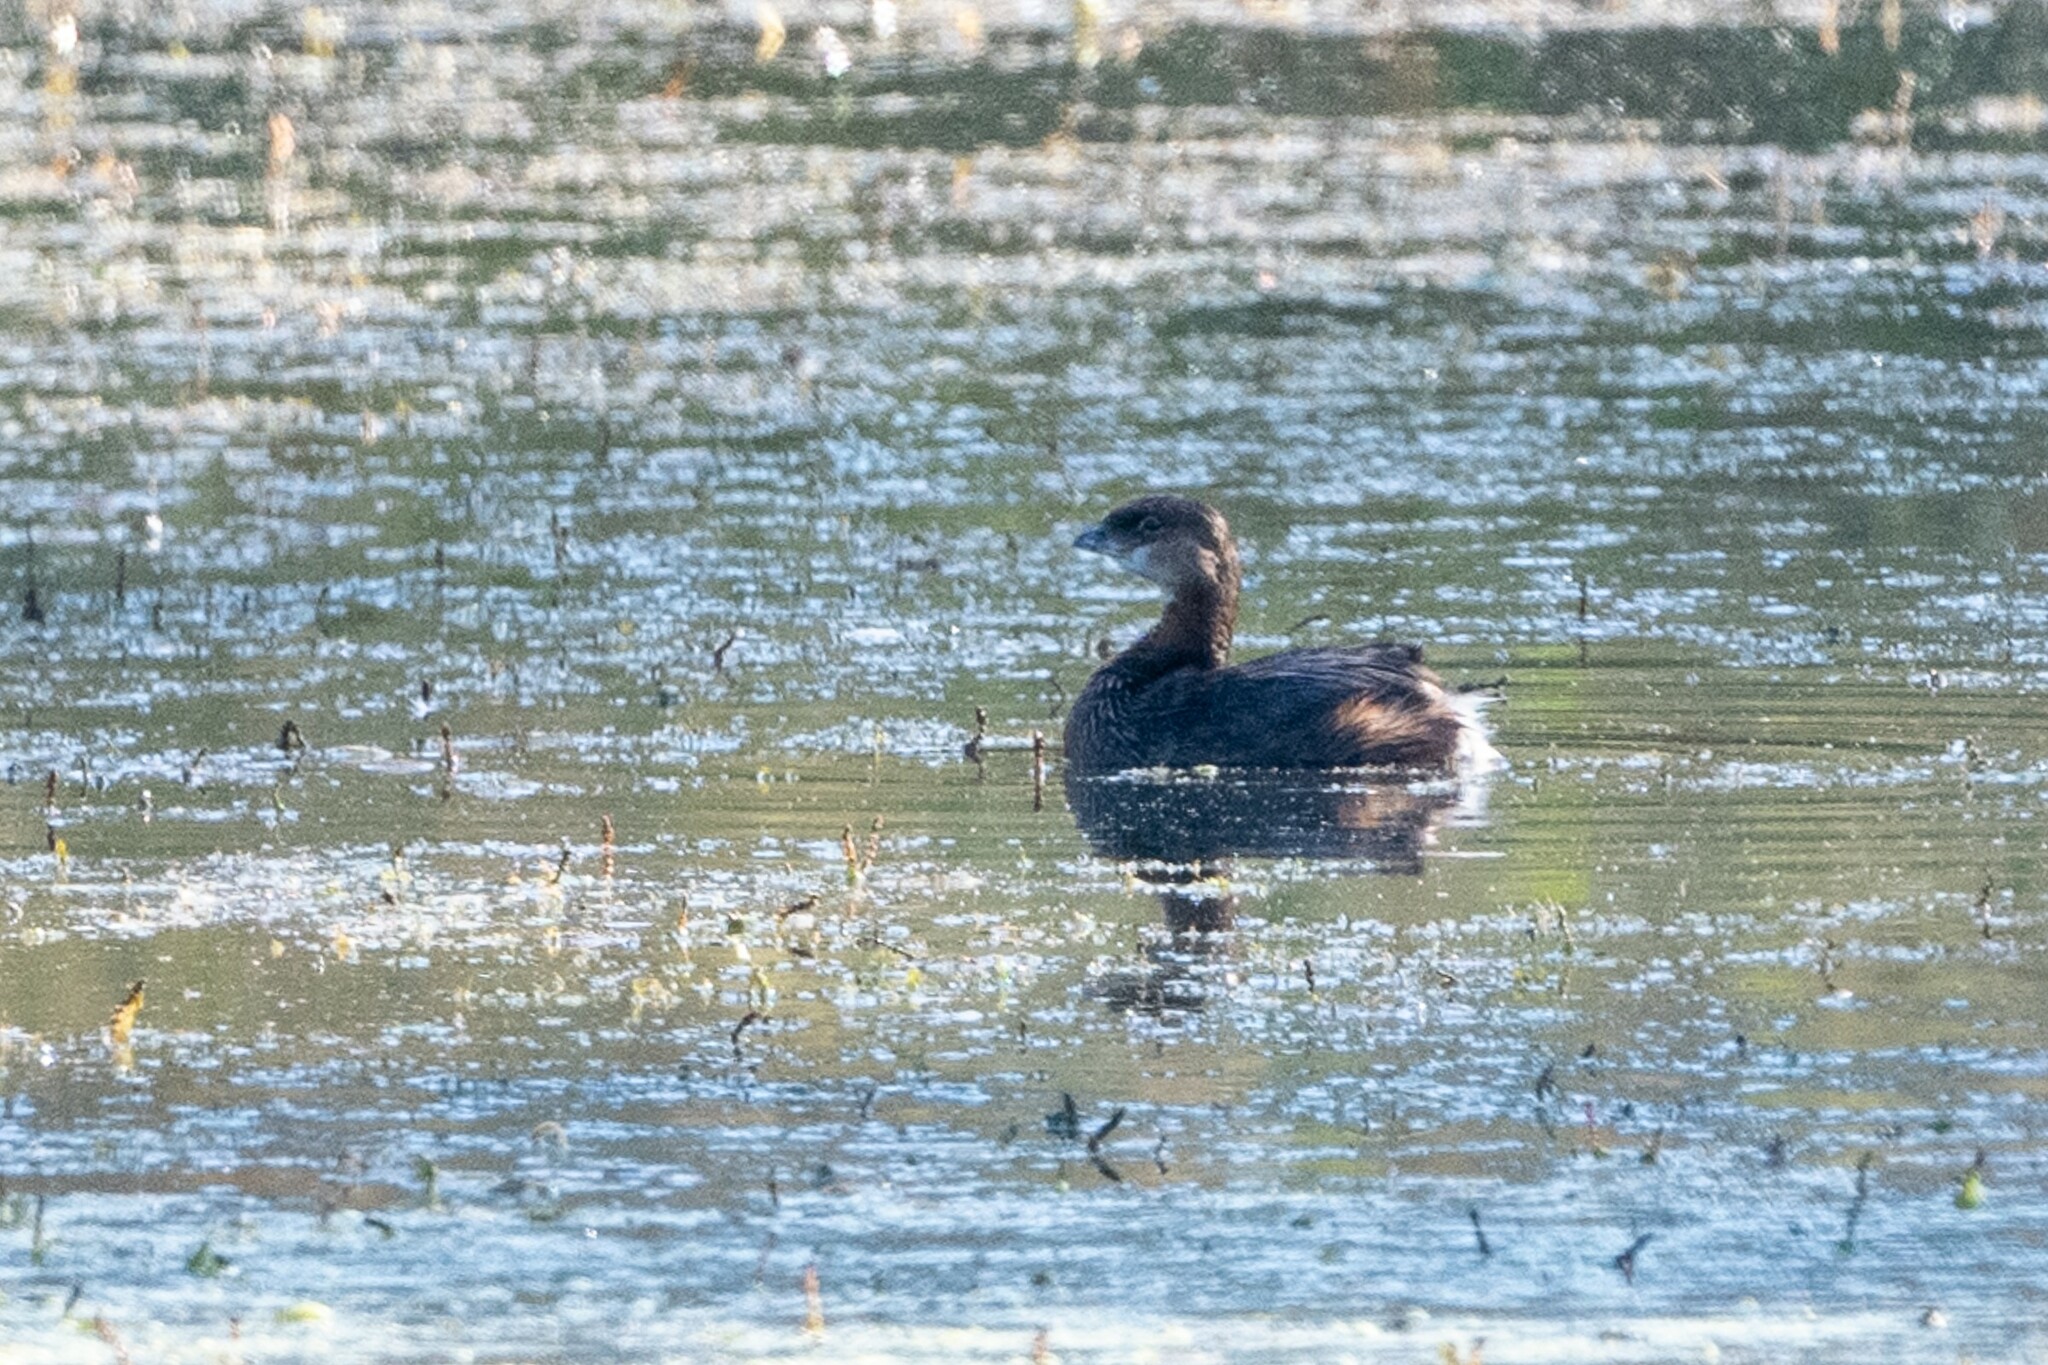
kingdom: Animalia
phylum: Chordata
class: Aves
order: Podicipediformes
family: Podicipedidae
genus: Podilymbus
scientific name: Podilymbus podiceps
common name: Pied-billed grebe
